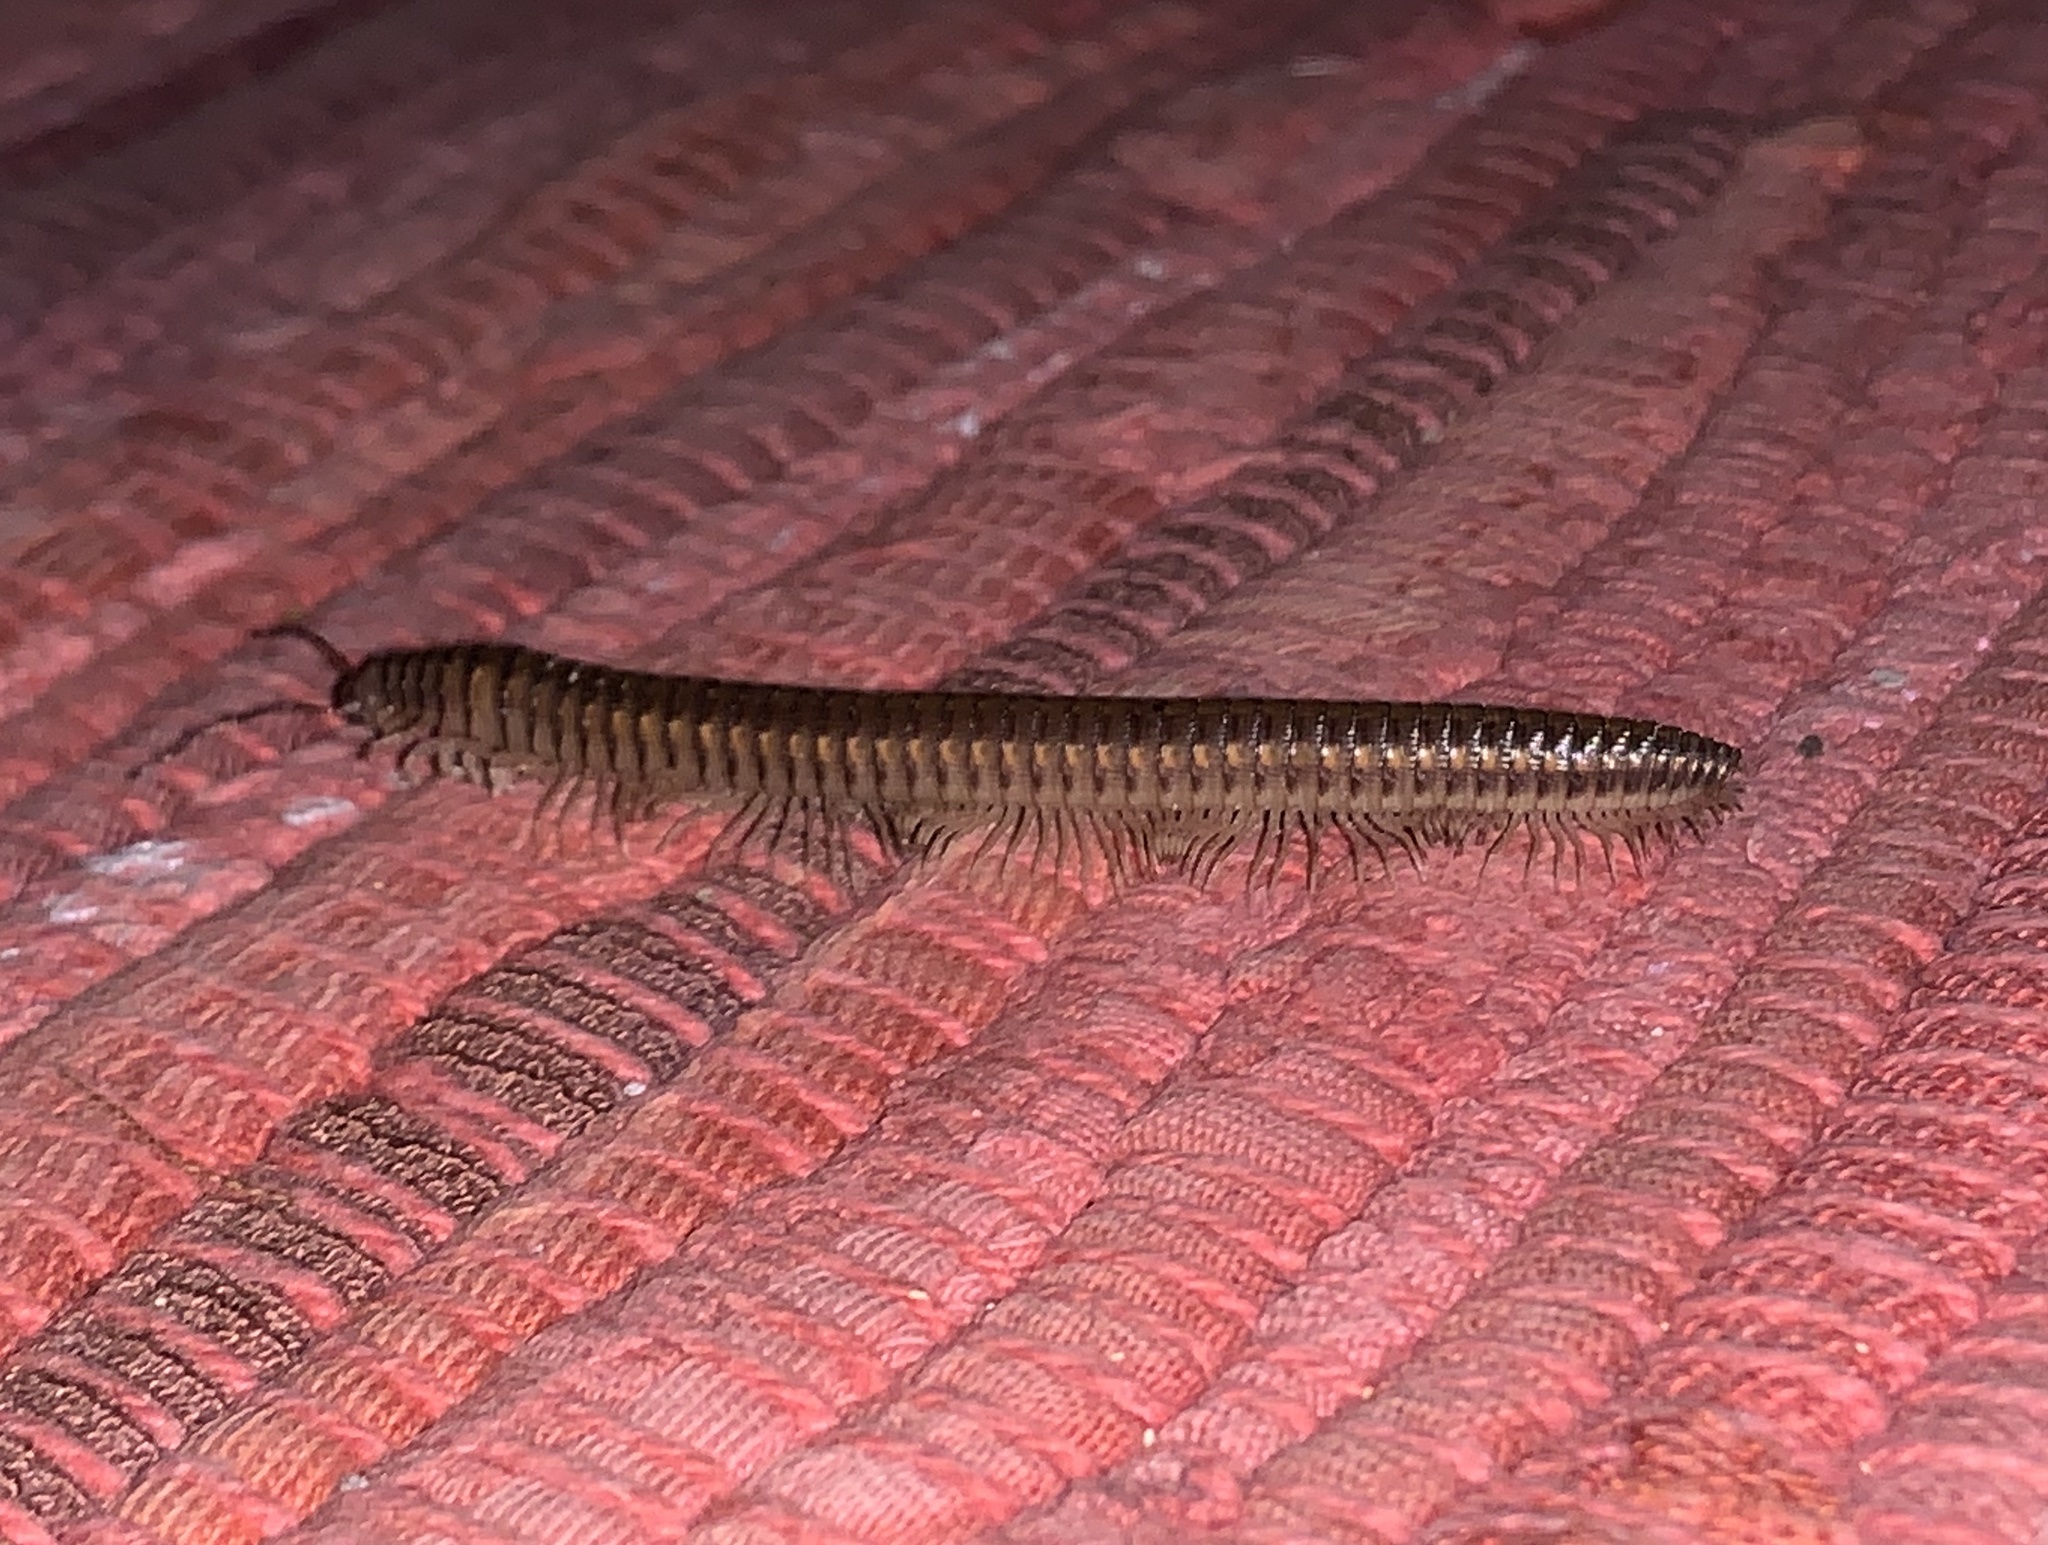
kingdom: Animalia
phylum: Arthropoda
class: Diplopoda
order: Callipodida
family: Schizopetalidae
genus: Prolysiopetalum
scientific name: Prolysiopetalum scabratum
